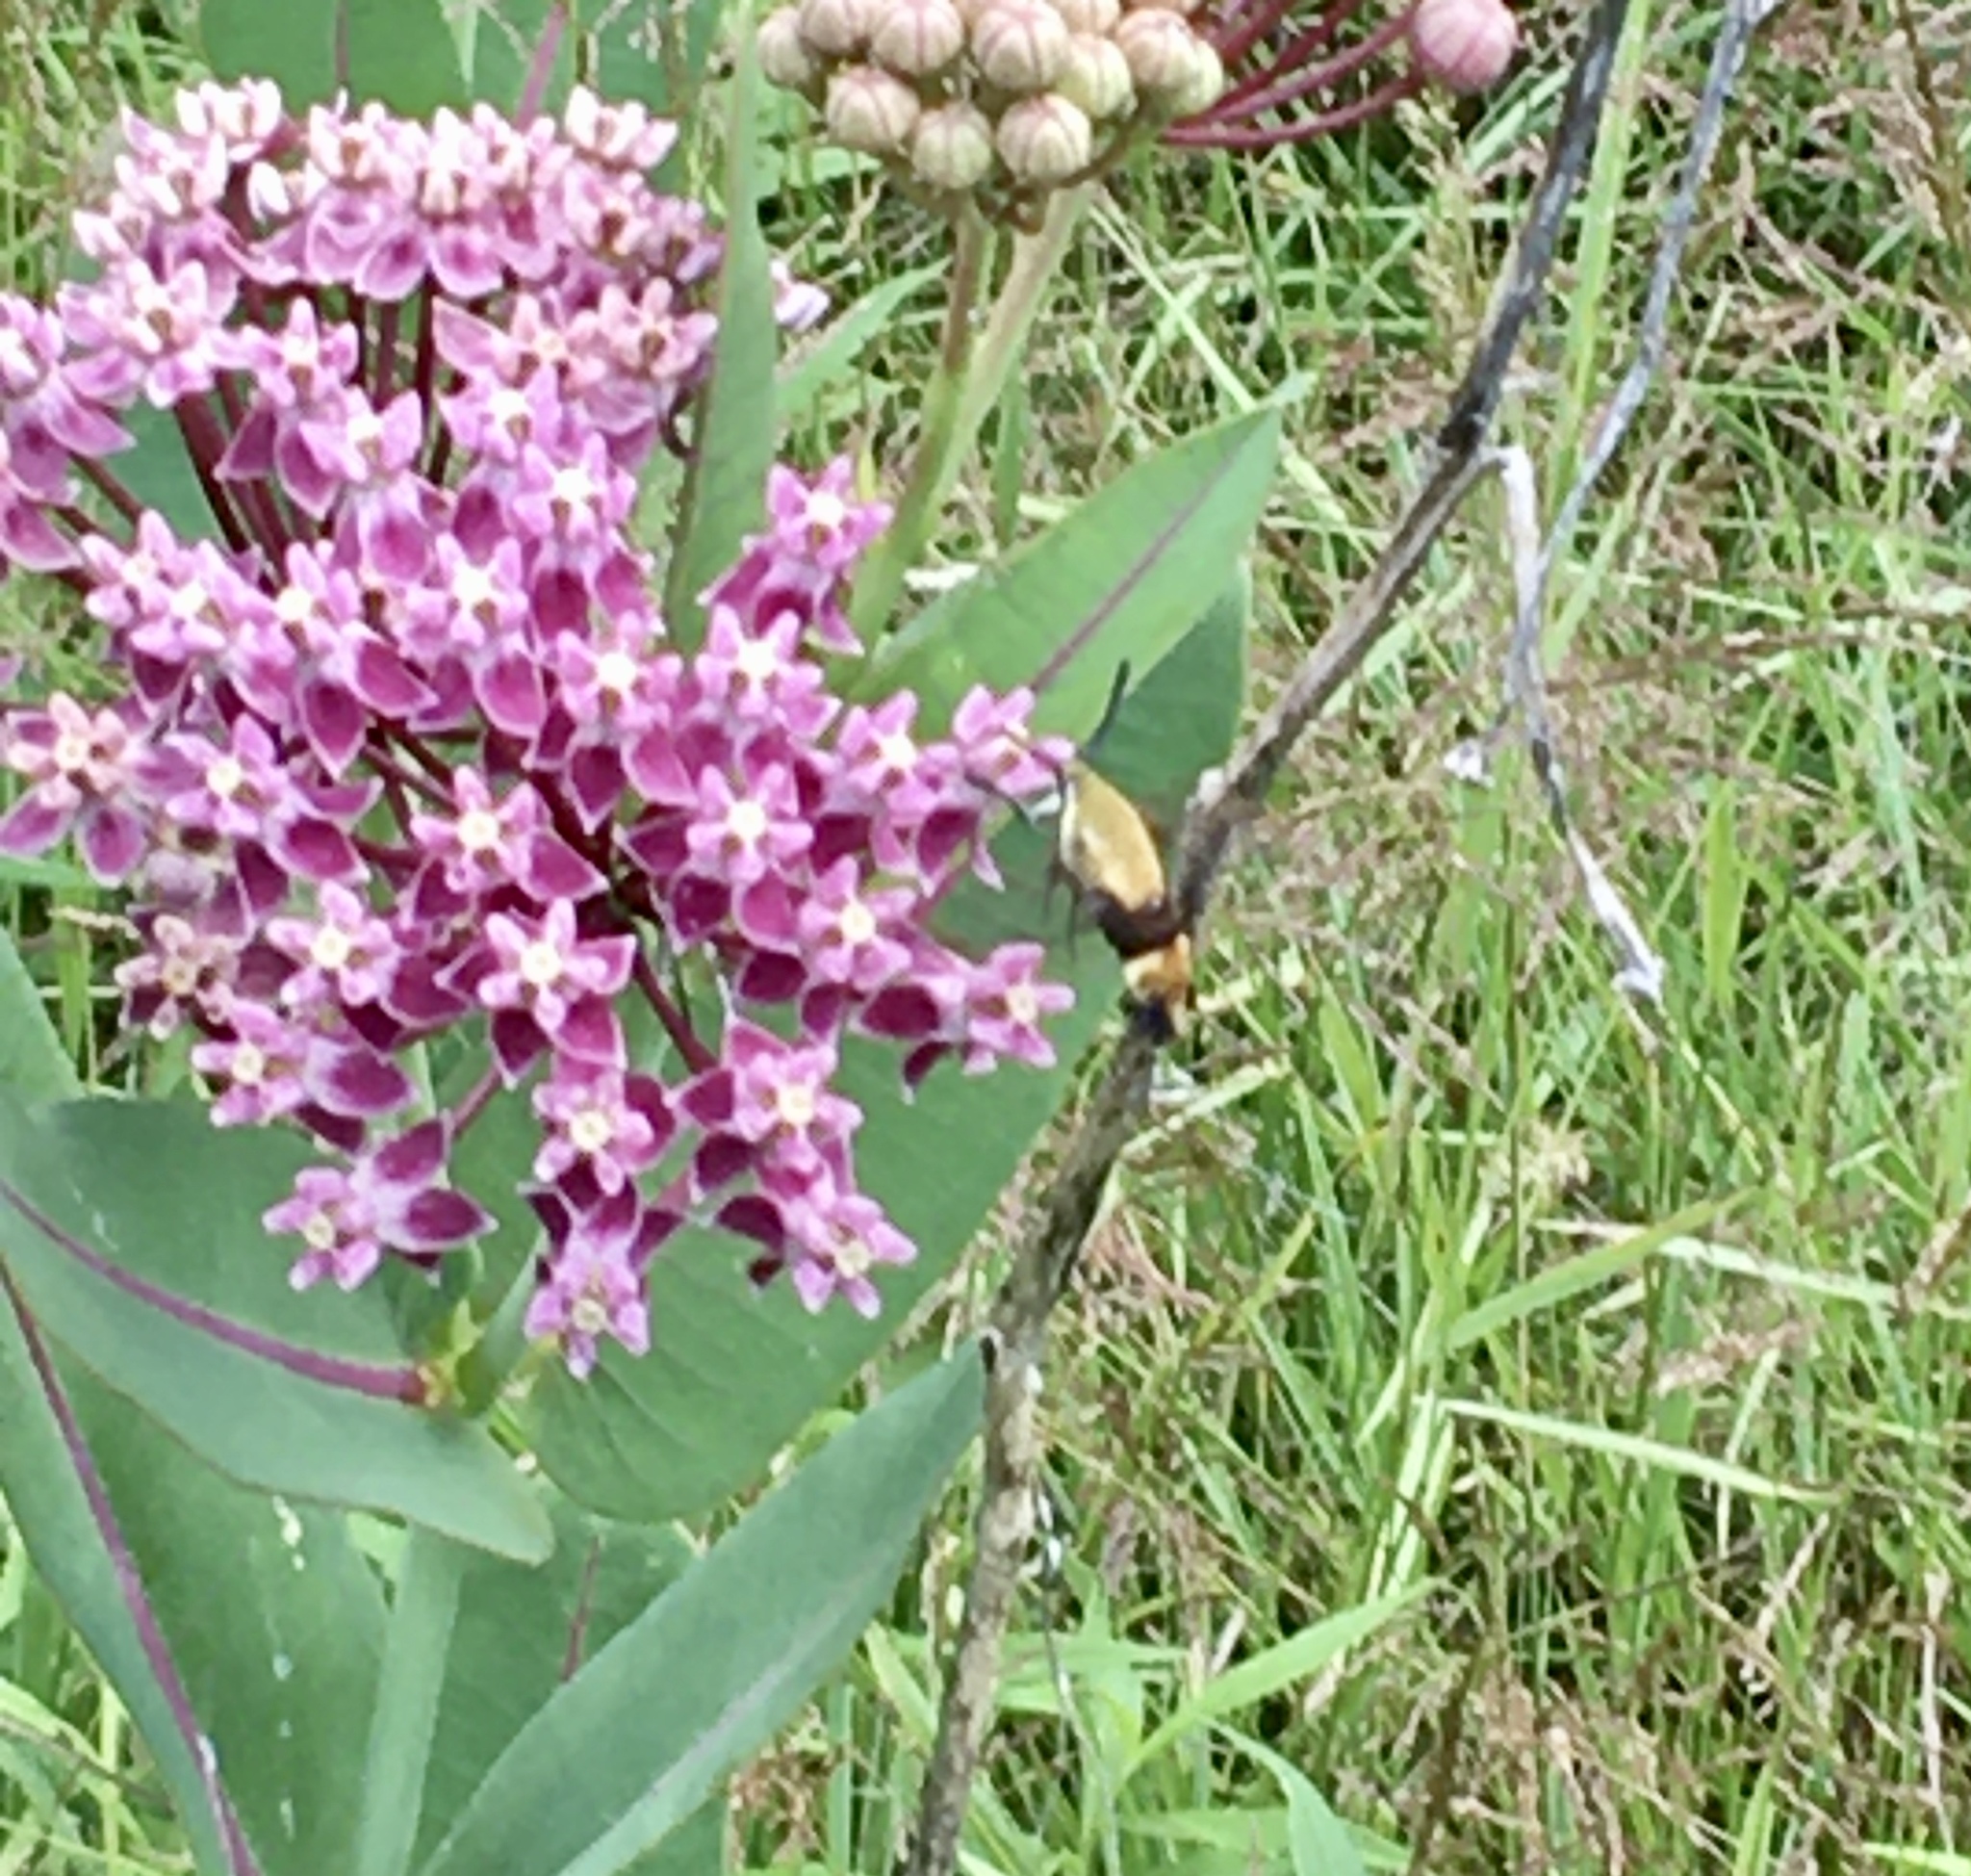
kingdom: Animalia
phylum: Arthropoda
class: Insecta
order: Lepidoptera
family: Sphingidae
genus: Hemaris
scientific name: Hemaris diffinis
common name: Bumblebee moth
